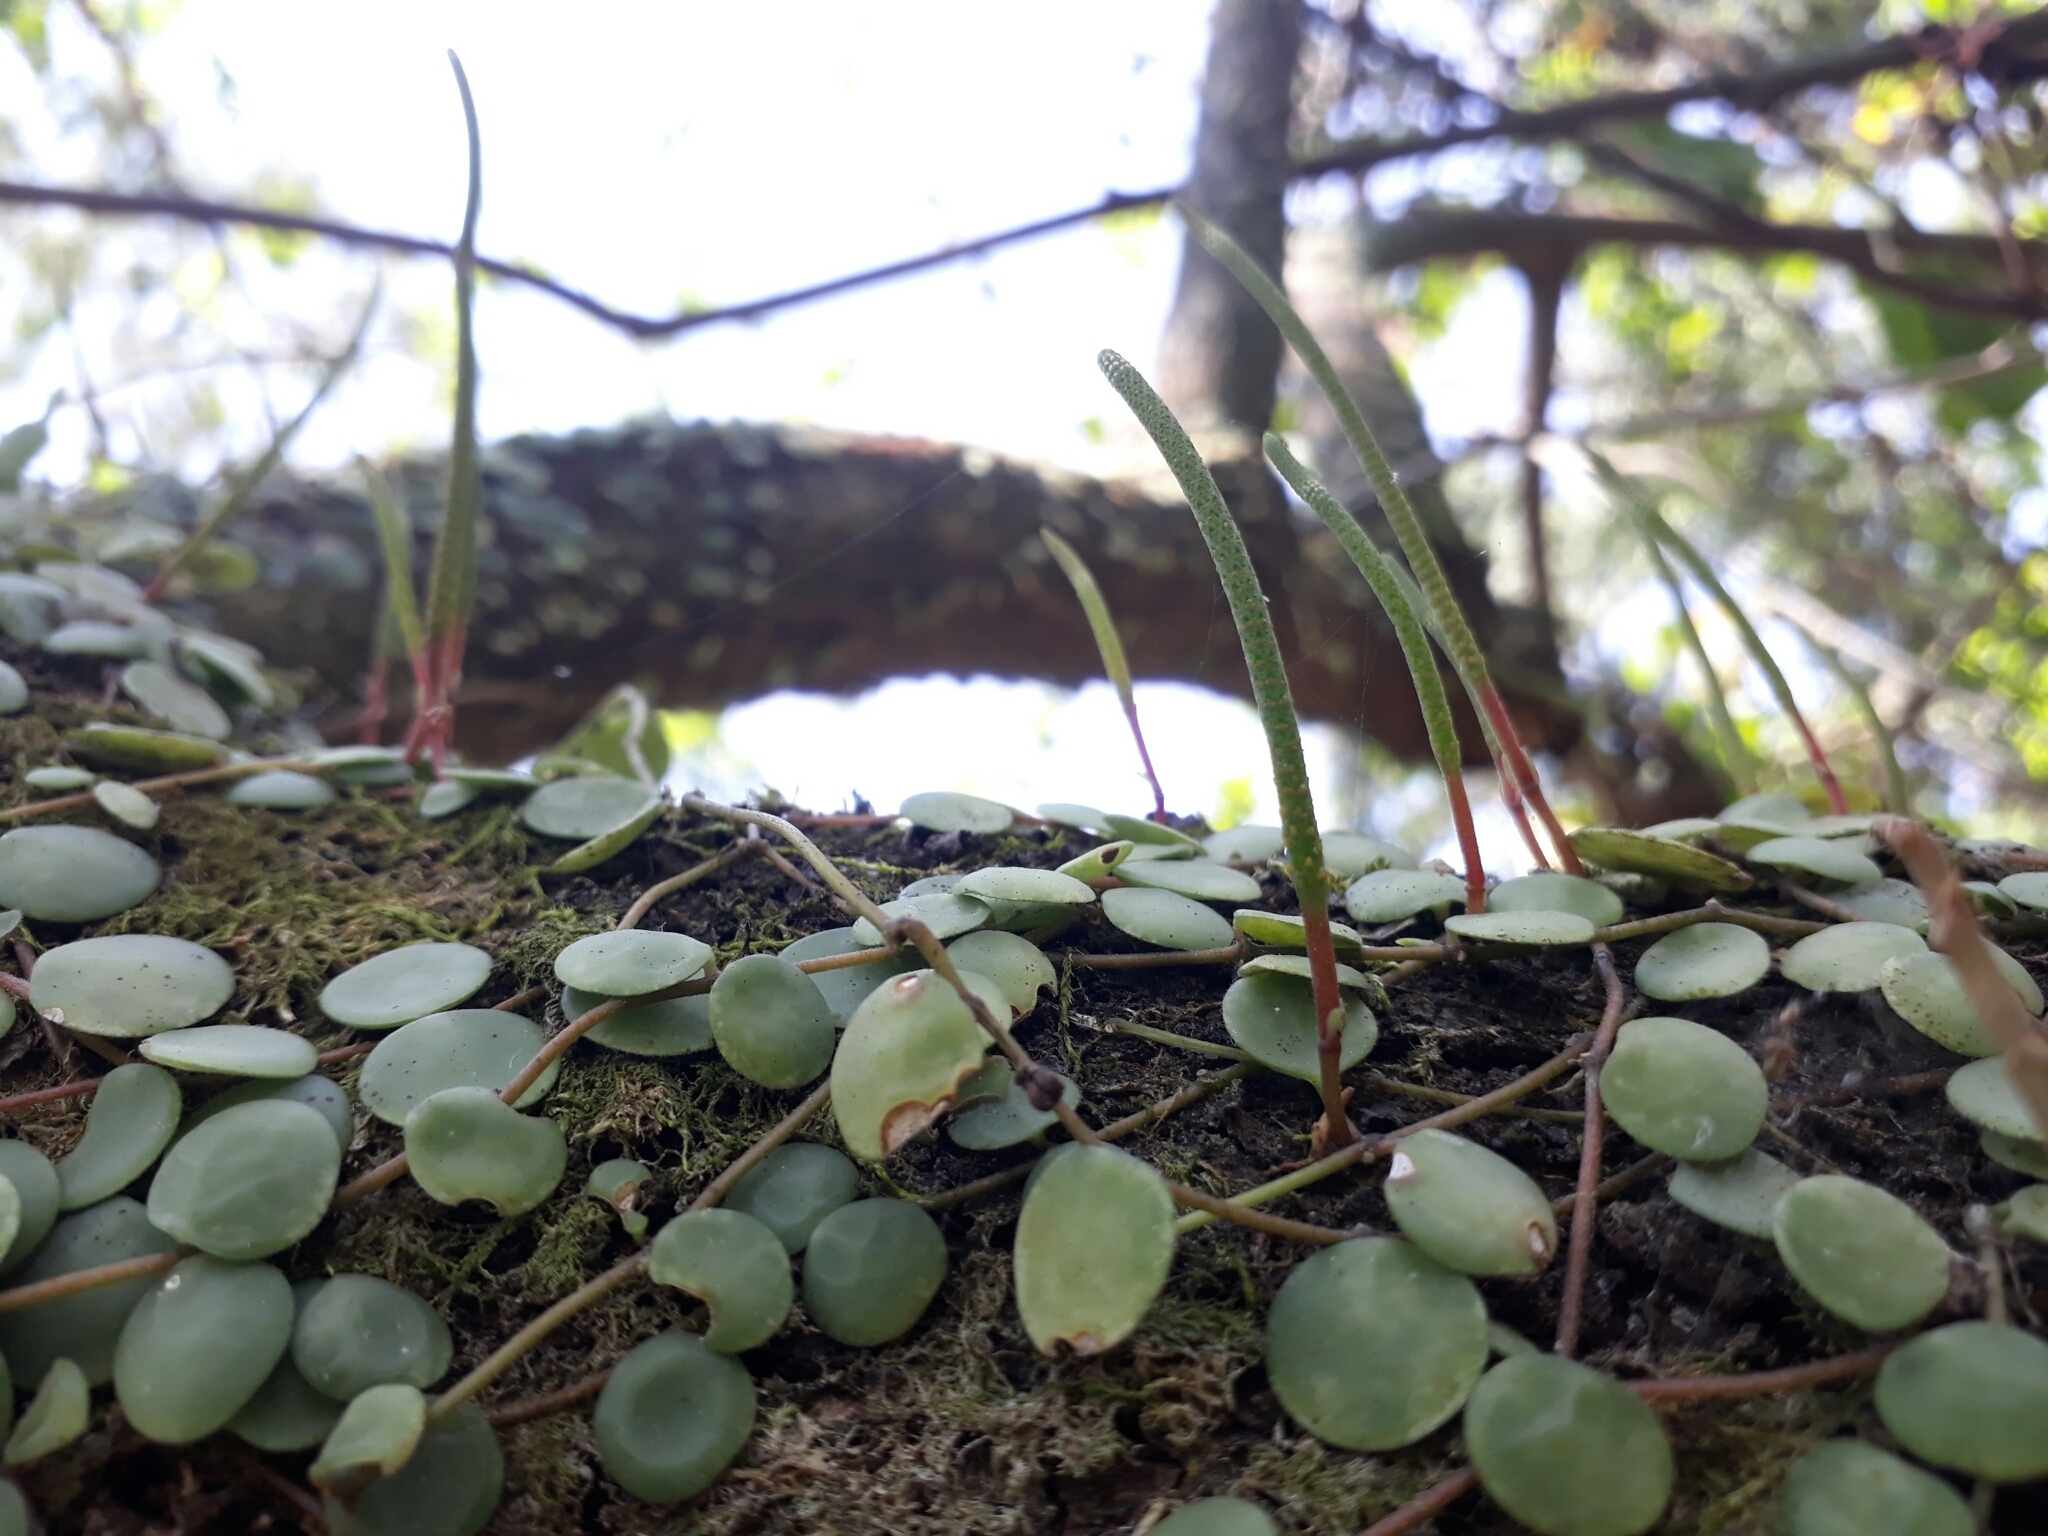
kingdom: Plantae
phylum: Tracheophyta
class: Magnoliopsida
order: Piperales
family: Piperaceae
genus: Peperomia
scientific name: Peperomia cyclophylla
